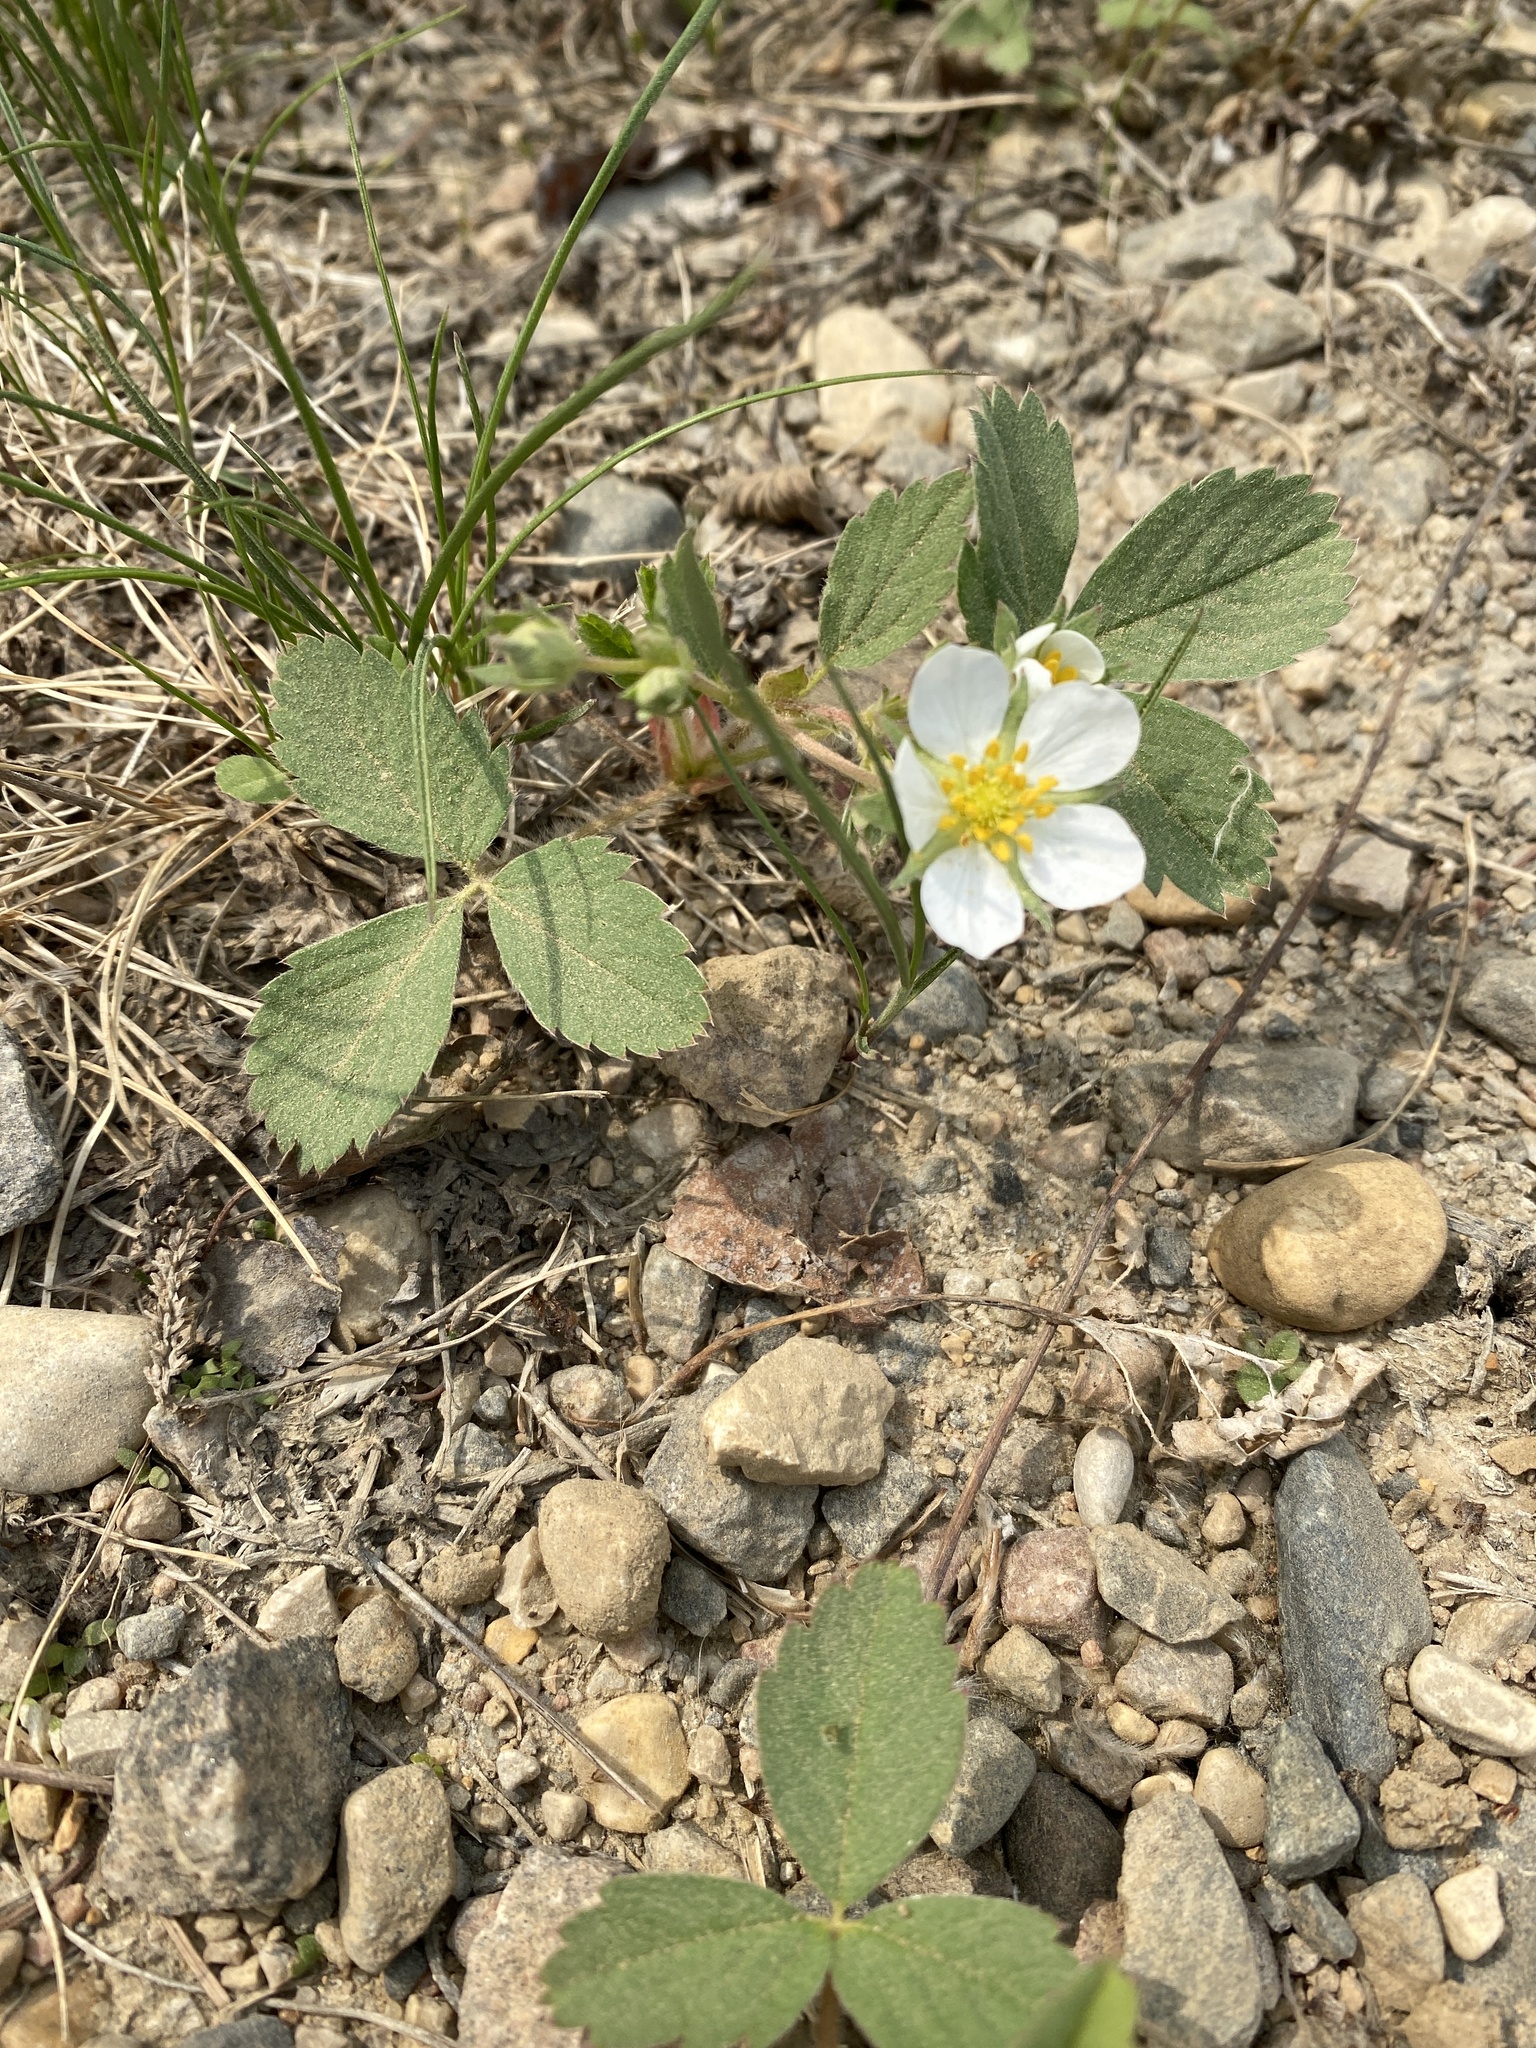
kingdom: Plantae
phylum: Tracheophyta
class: Magnoliopsida
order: Rosales
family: Rosaceae
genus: Fragaria
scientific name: Fragaria virginiana
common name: Thickleaved wild strawberry
